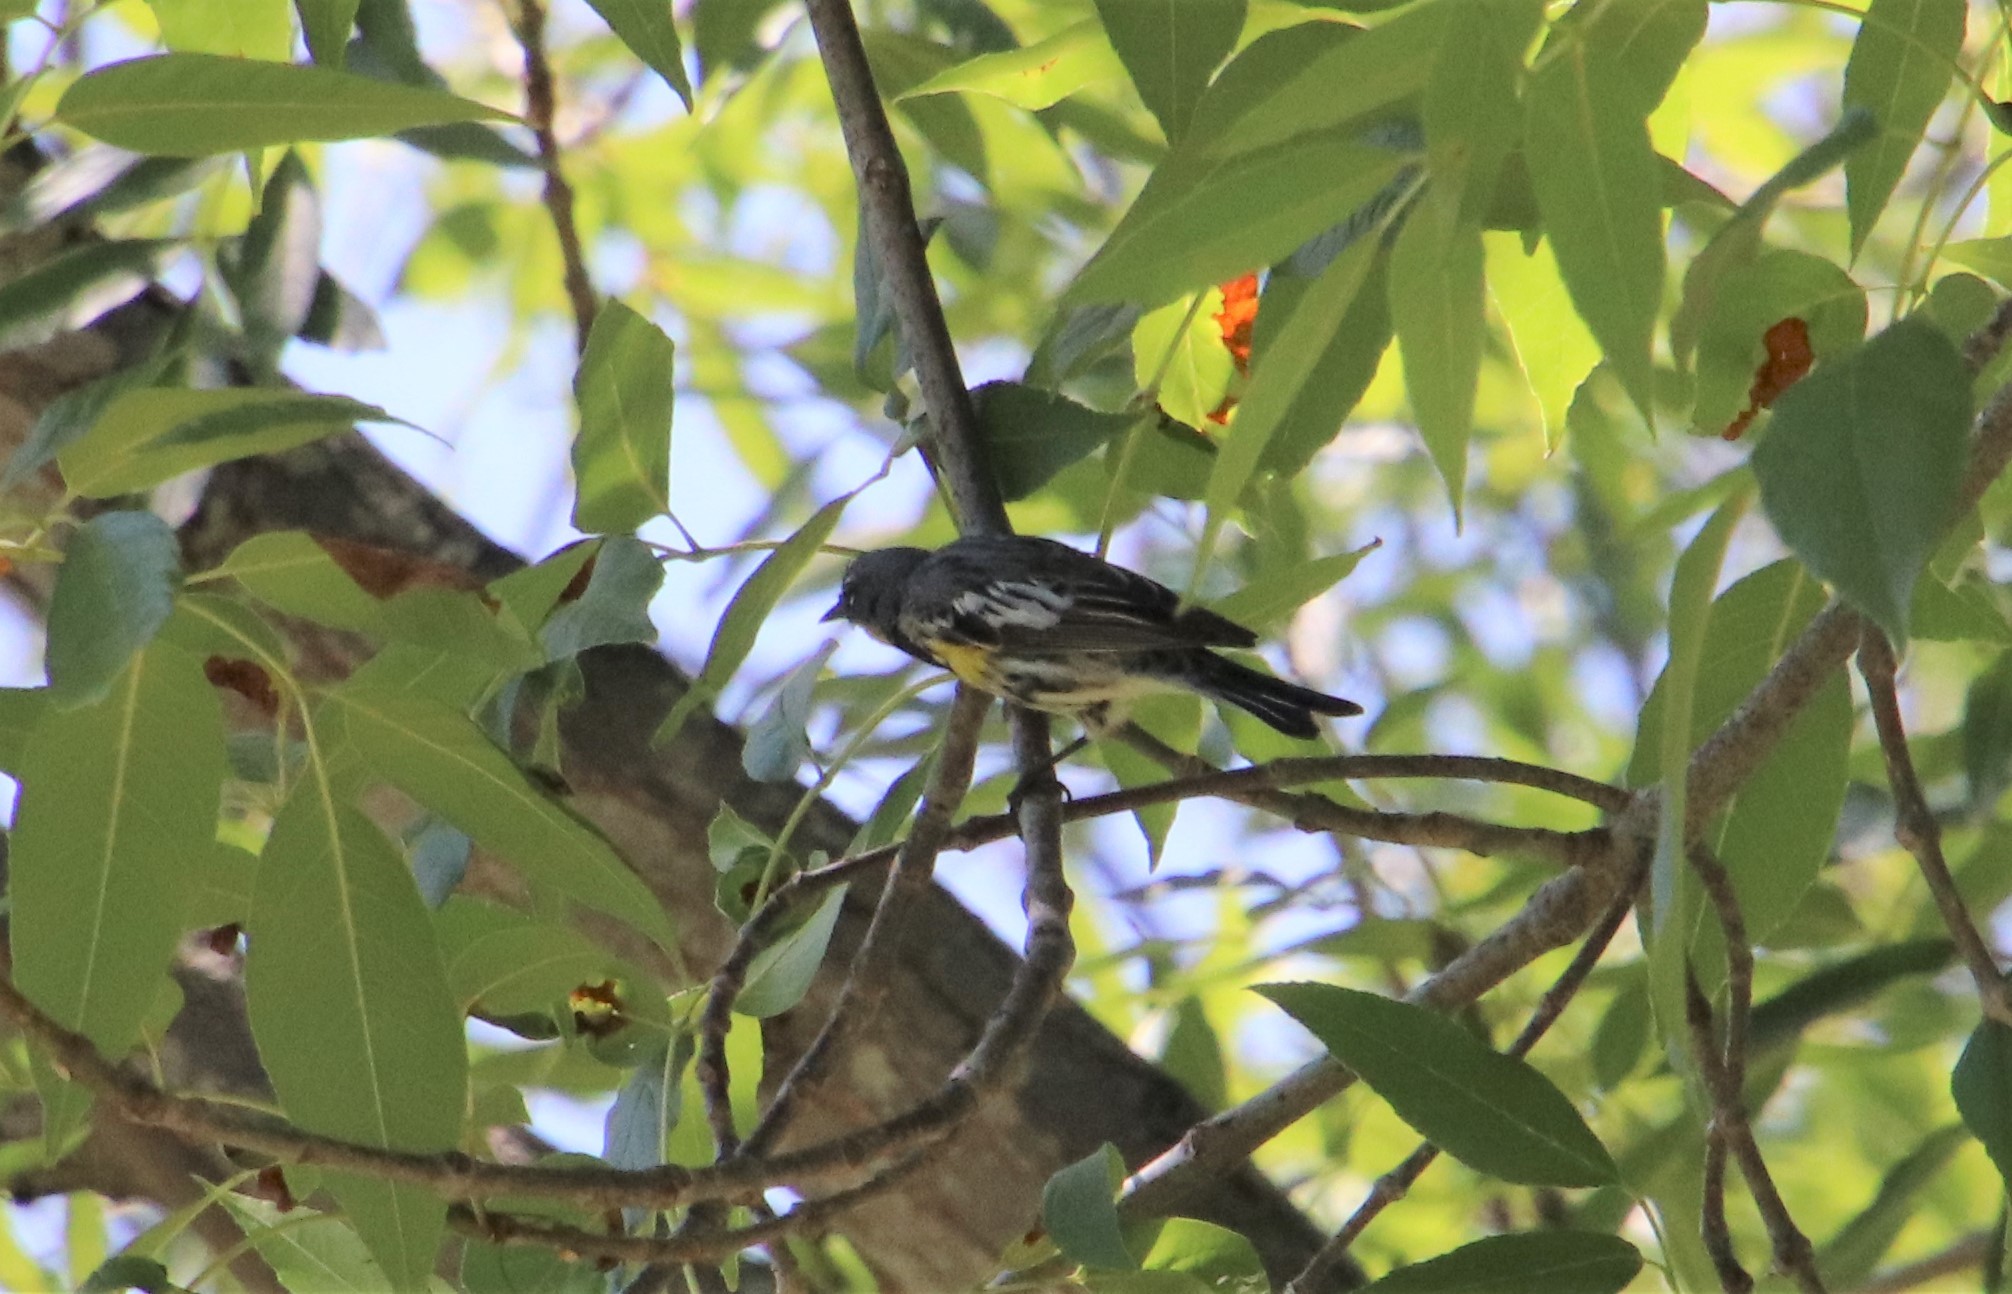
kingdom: Animalia
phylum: Chordata
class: Aves
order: Passeriformes
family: Parulidae
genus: Setophaga
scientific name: Setophaga auduboni
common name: Audubon's warbler
